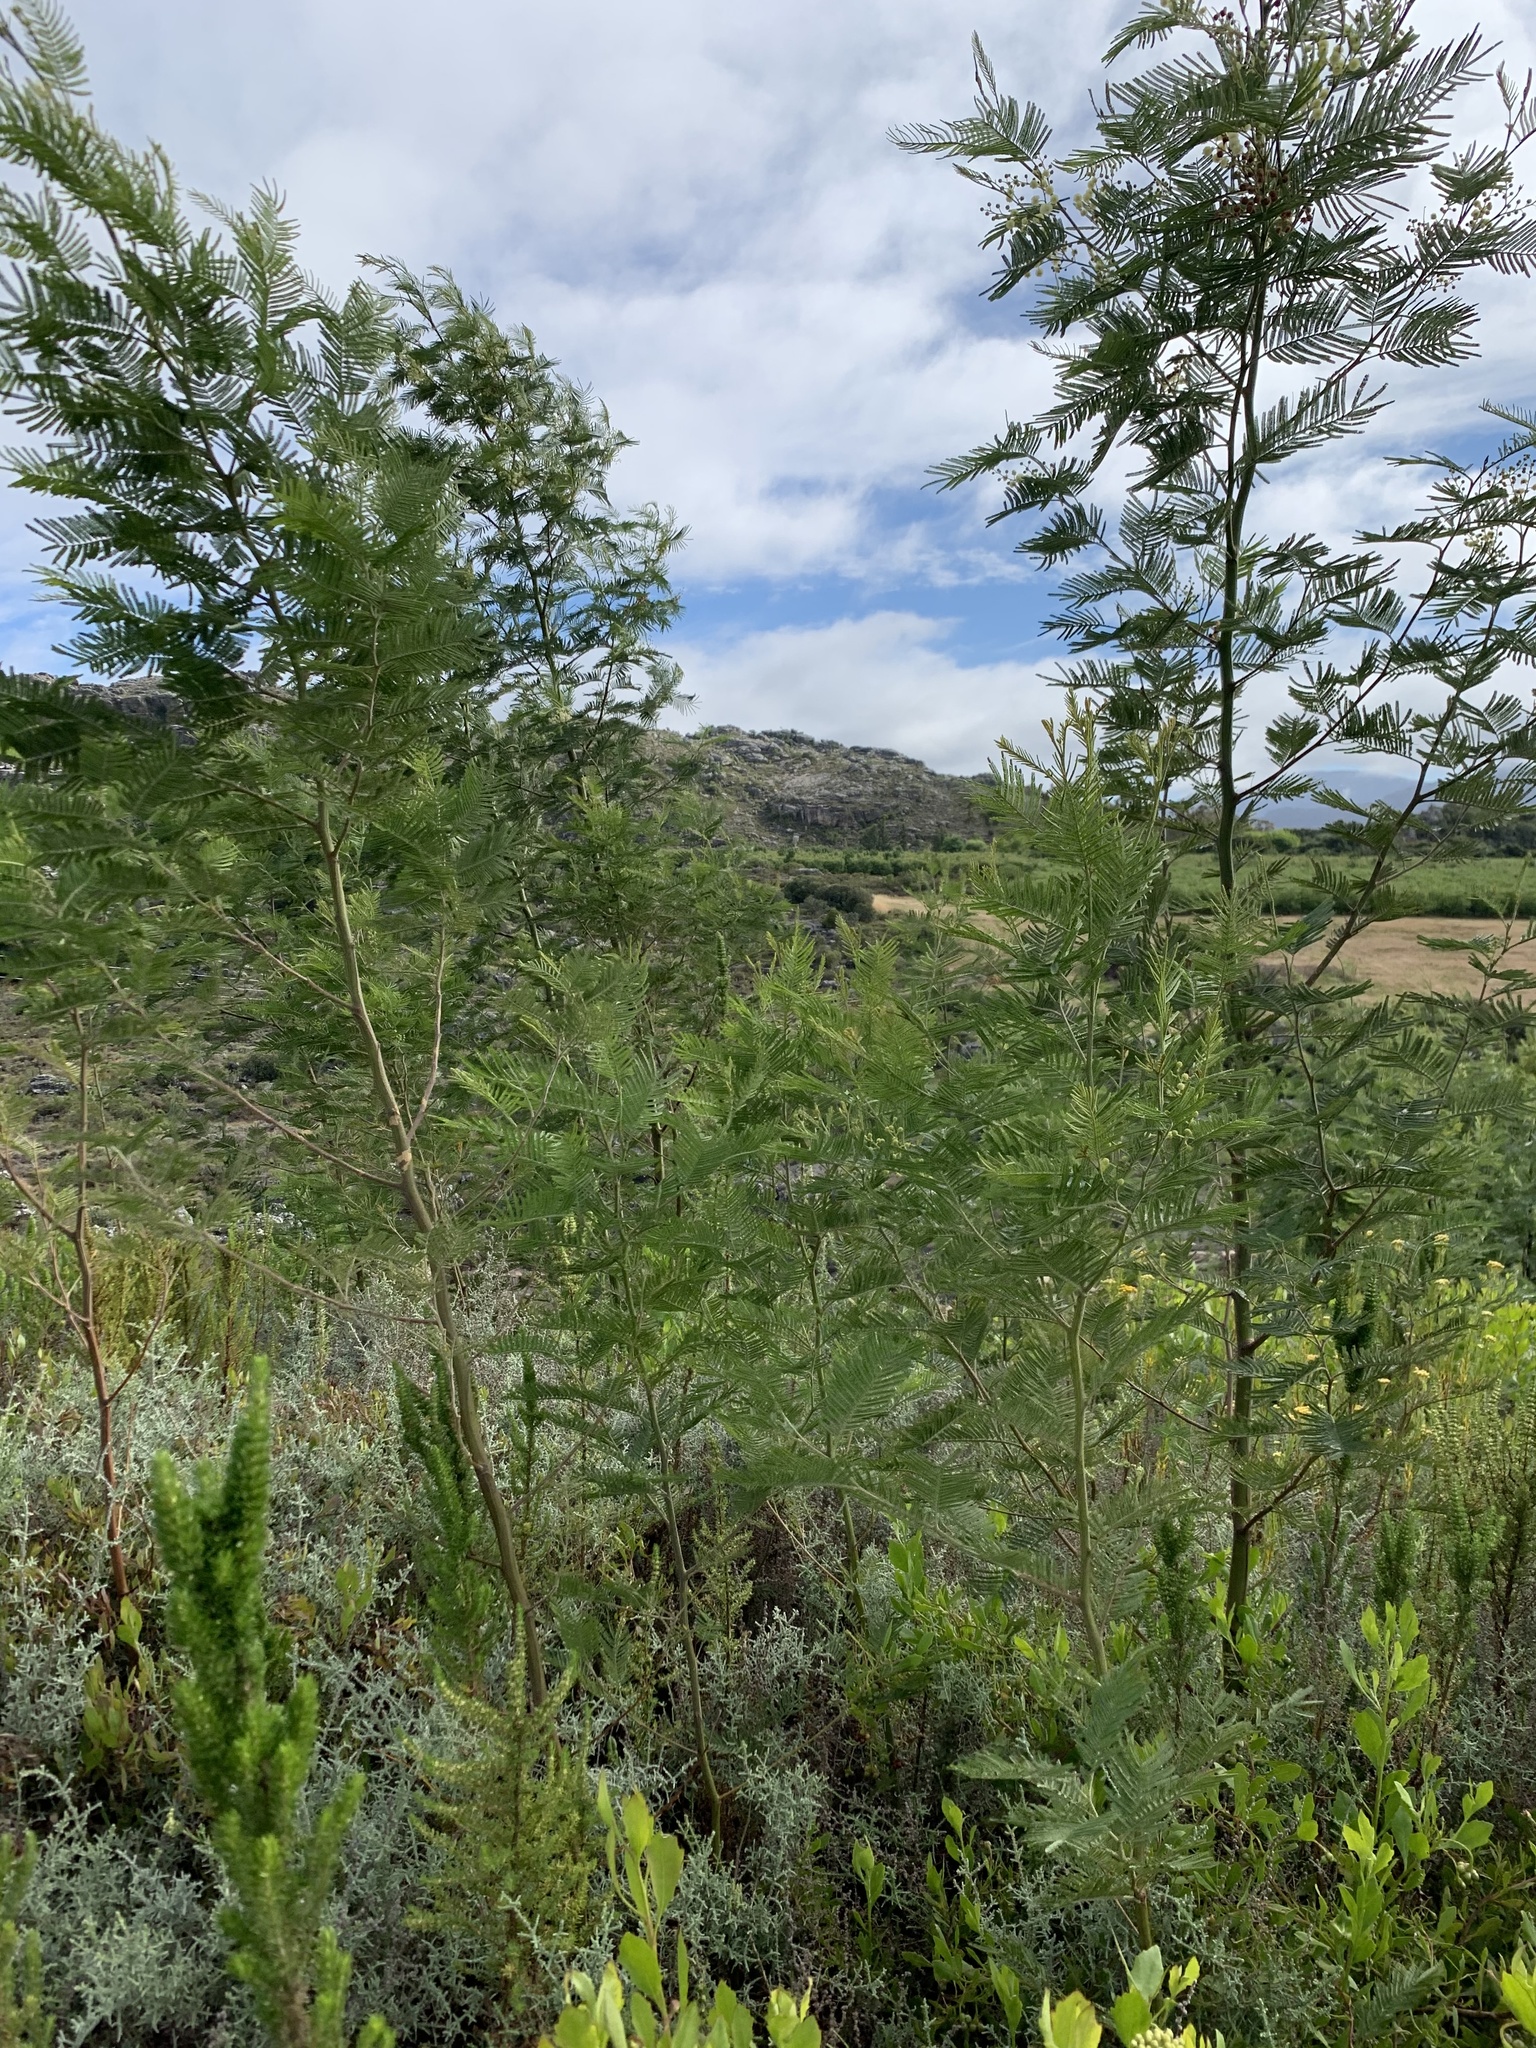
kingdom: Plantae
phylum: Tracheophyta
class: Magnoliopsida
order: Fabales
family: Fabaceae
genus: Acacia
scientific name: Acacia mearnsii
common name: Black wattle
